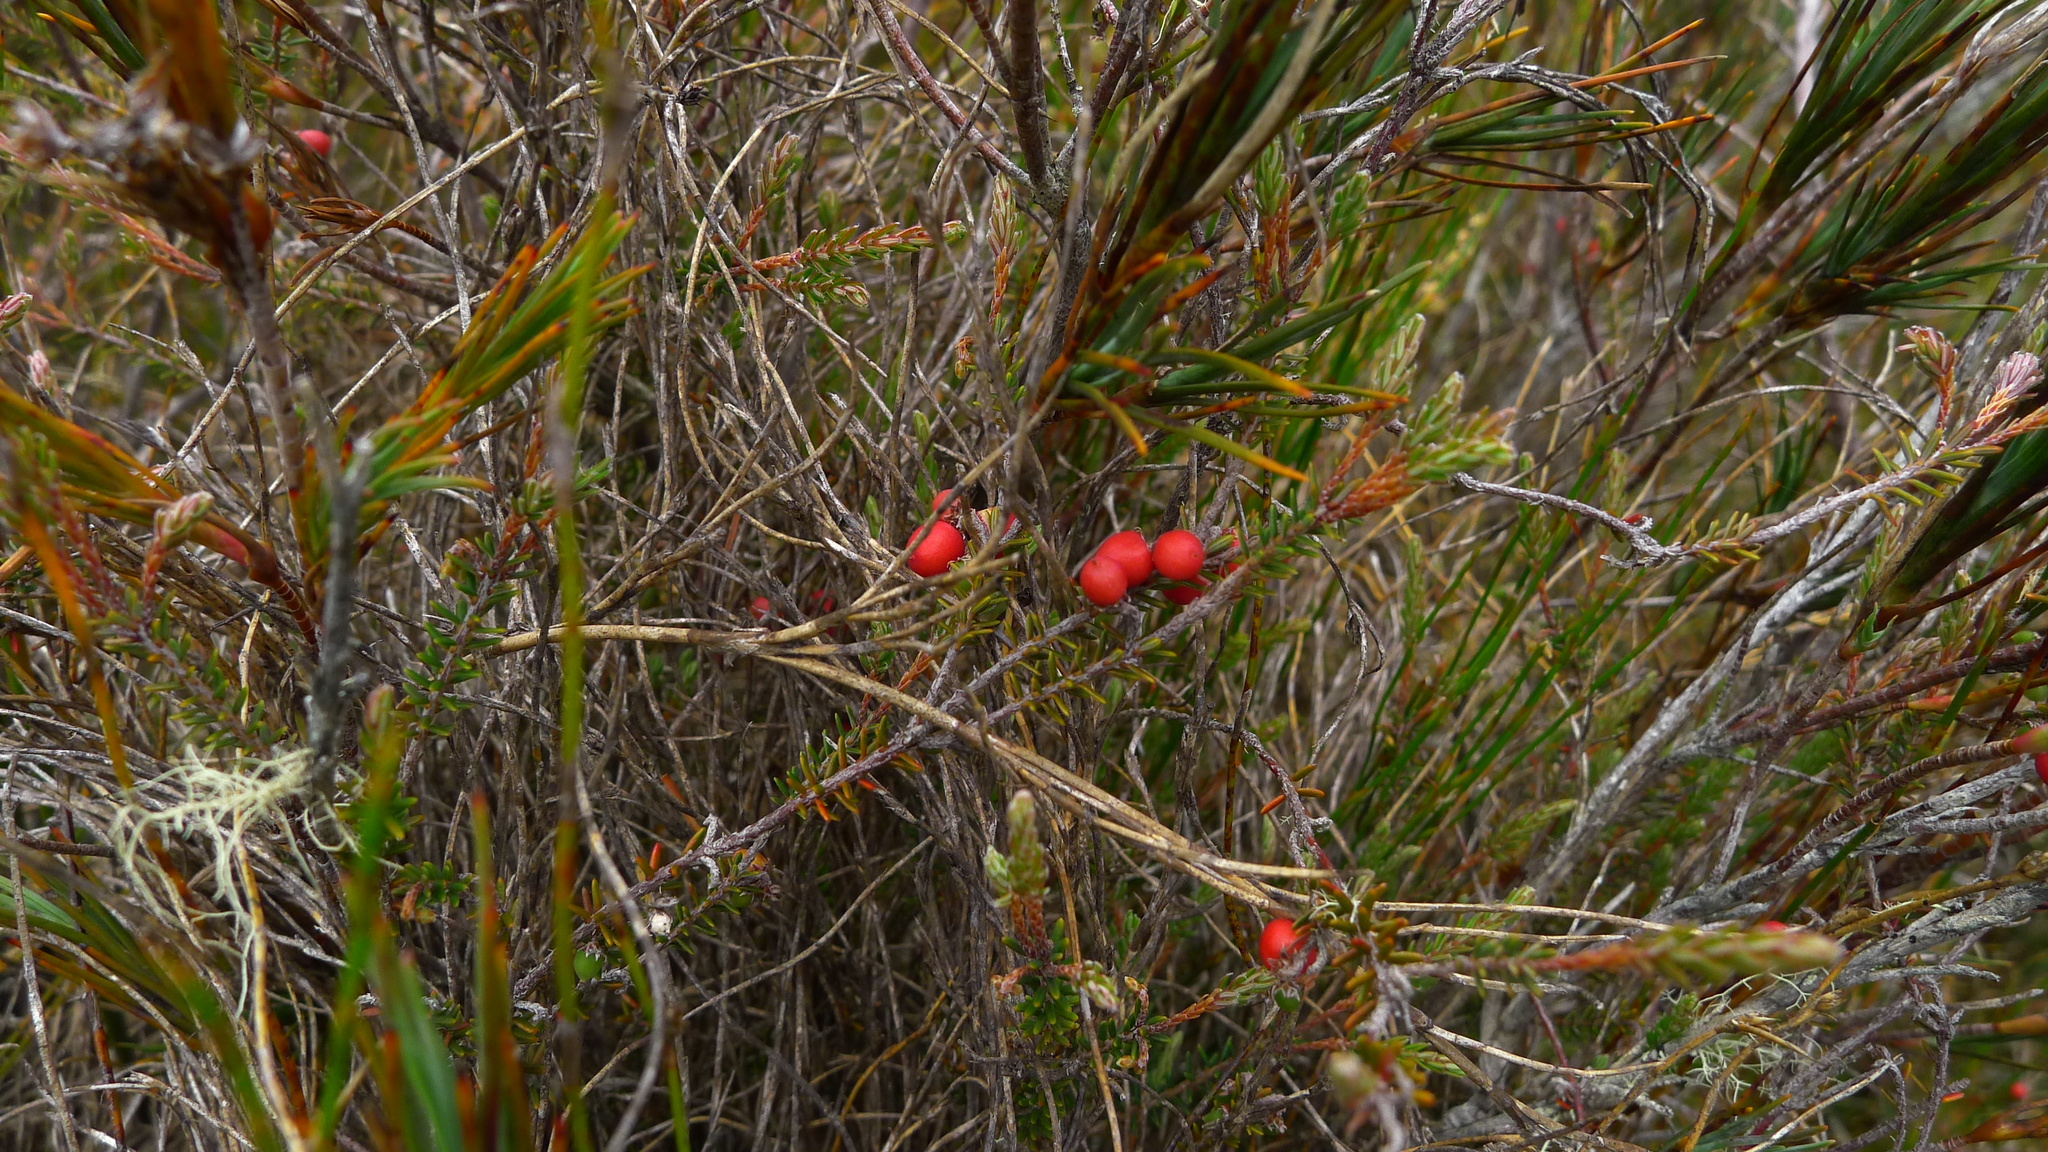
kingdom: Plantae
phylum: Tracheophyta
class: Magnoliopsida
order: Ericales
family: Ericaceae
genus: Androstoma
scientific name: Androstoma empetrifolia
